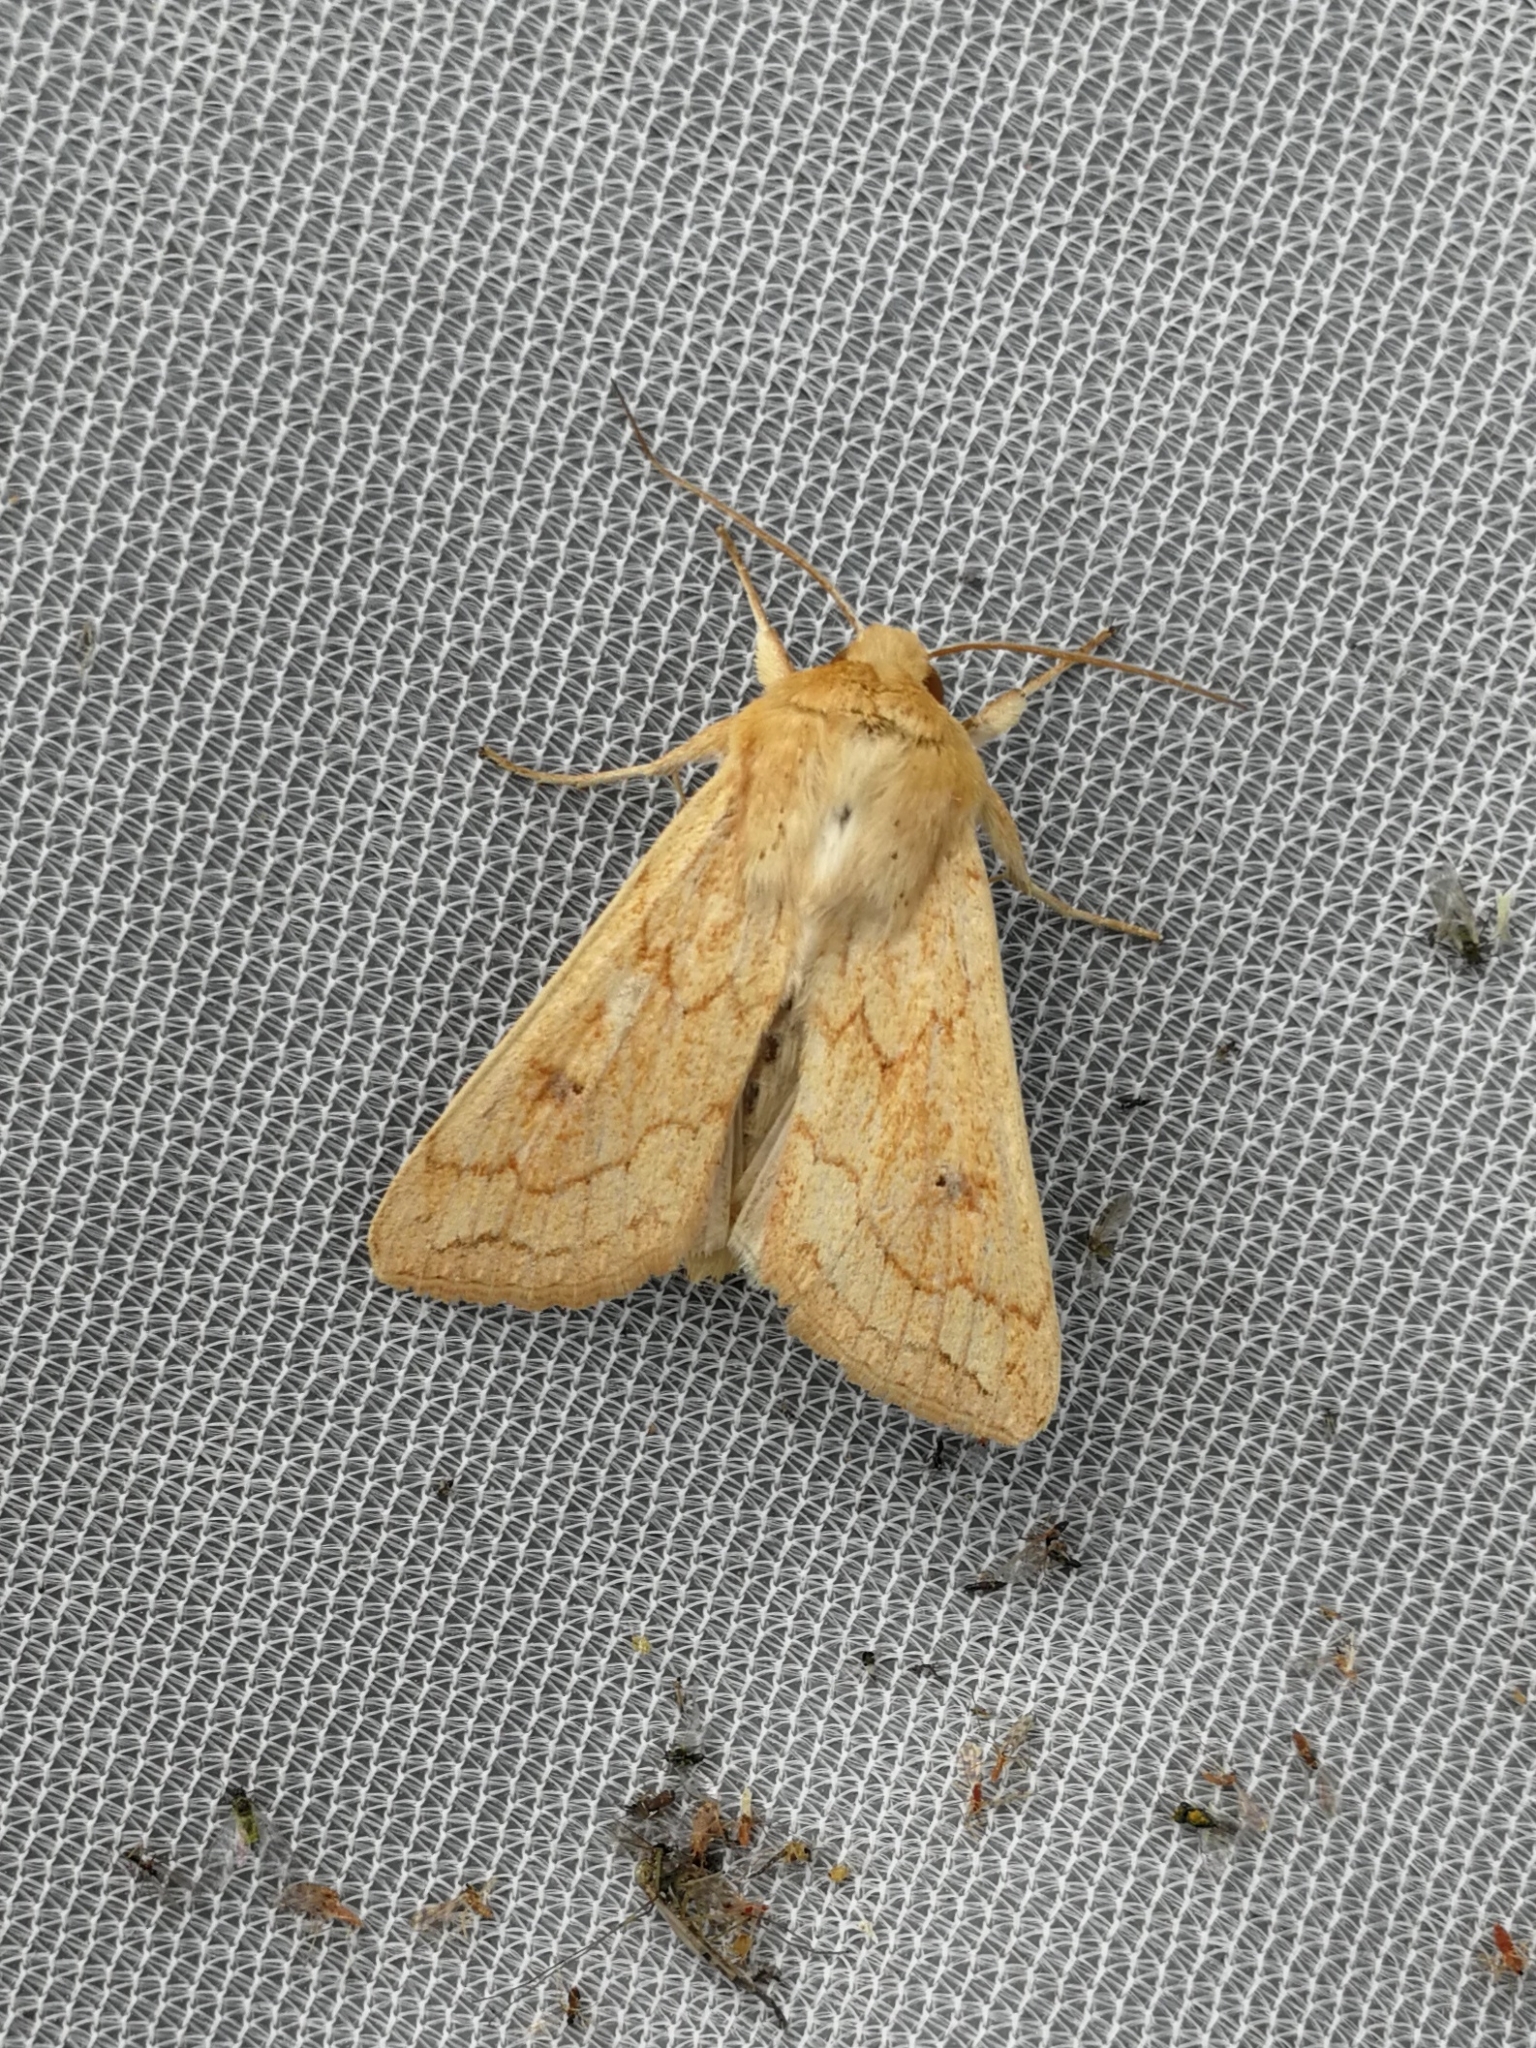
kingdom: Animalia
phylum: Arthropoda
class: Insecta
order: Lepidoptera
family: Noctuidae
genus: Mythimna
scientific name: Mythimna vitellina
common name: Delicate
